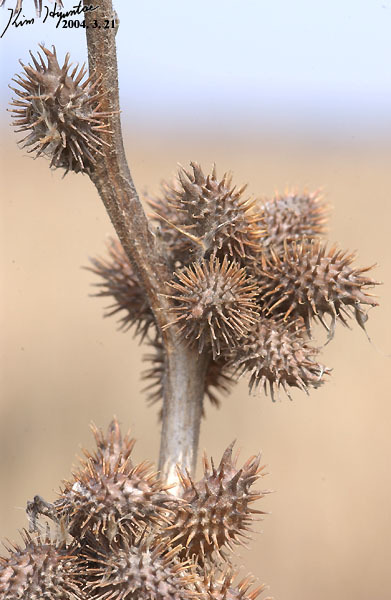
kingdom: Plantae
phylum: Tracheophyta
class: Magnoliopsida
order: Asterales
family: Asteraceae
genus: Xanthium
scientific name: Xanthium strumarium
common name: Rough cocklebur
